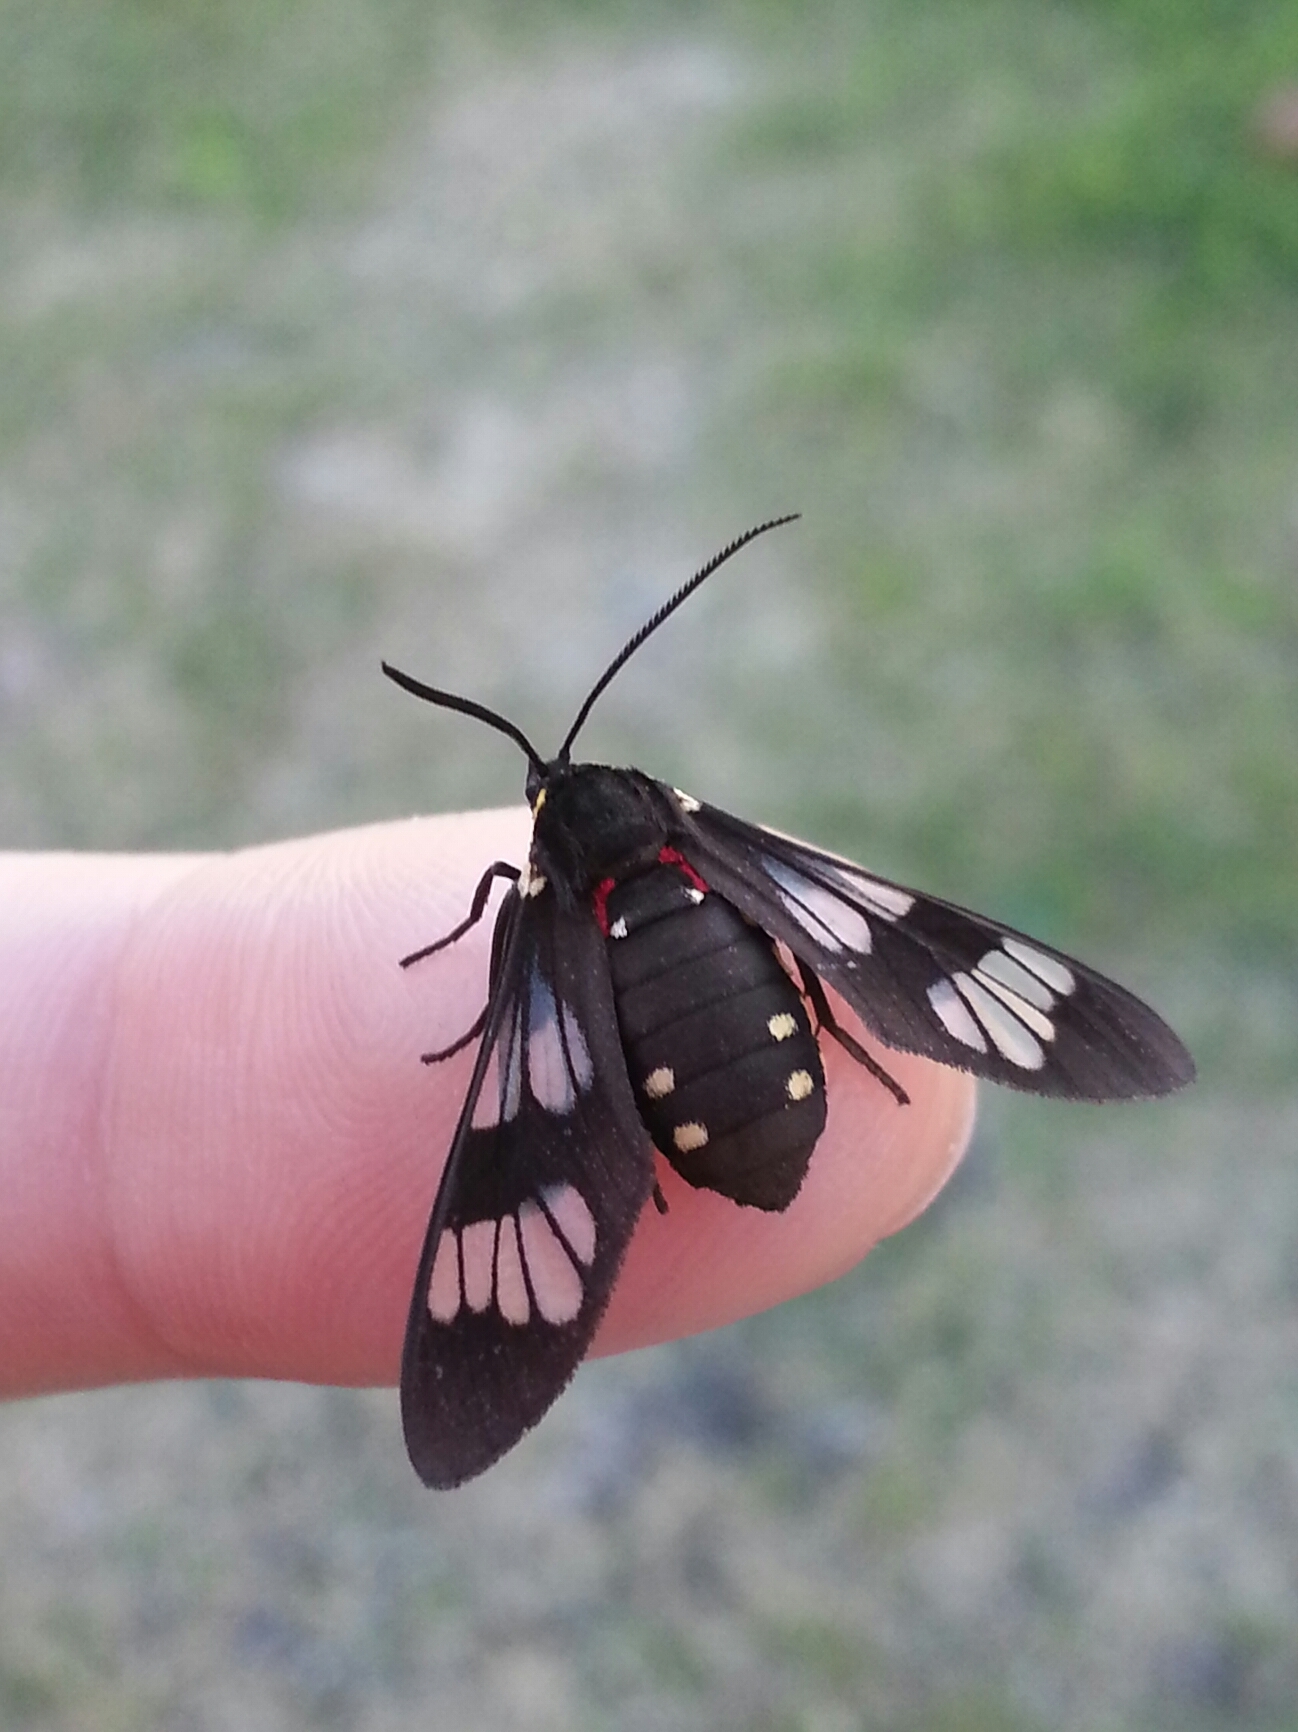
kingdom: Animalia
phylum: Arthropoda
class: Insecta
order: Lepidoptera
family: Erebidae
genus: Eurata
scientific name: Eurata hermione
